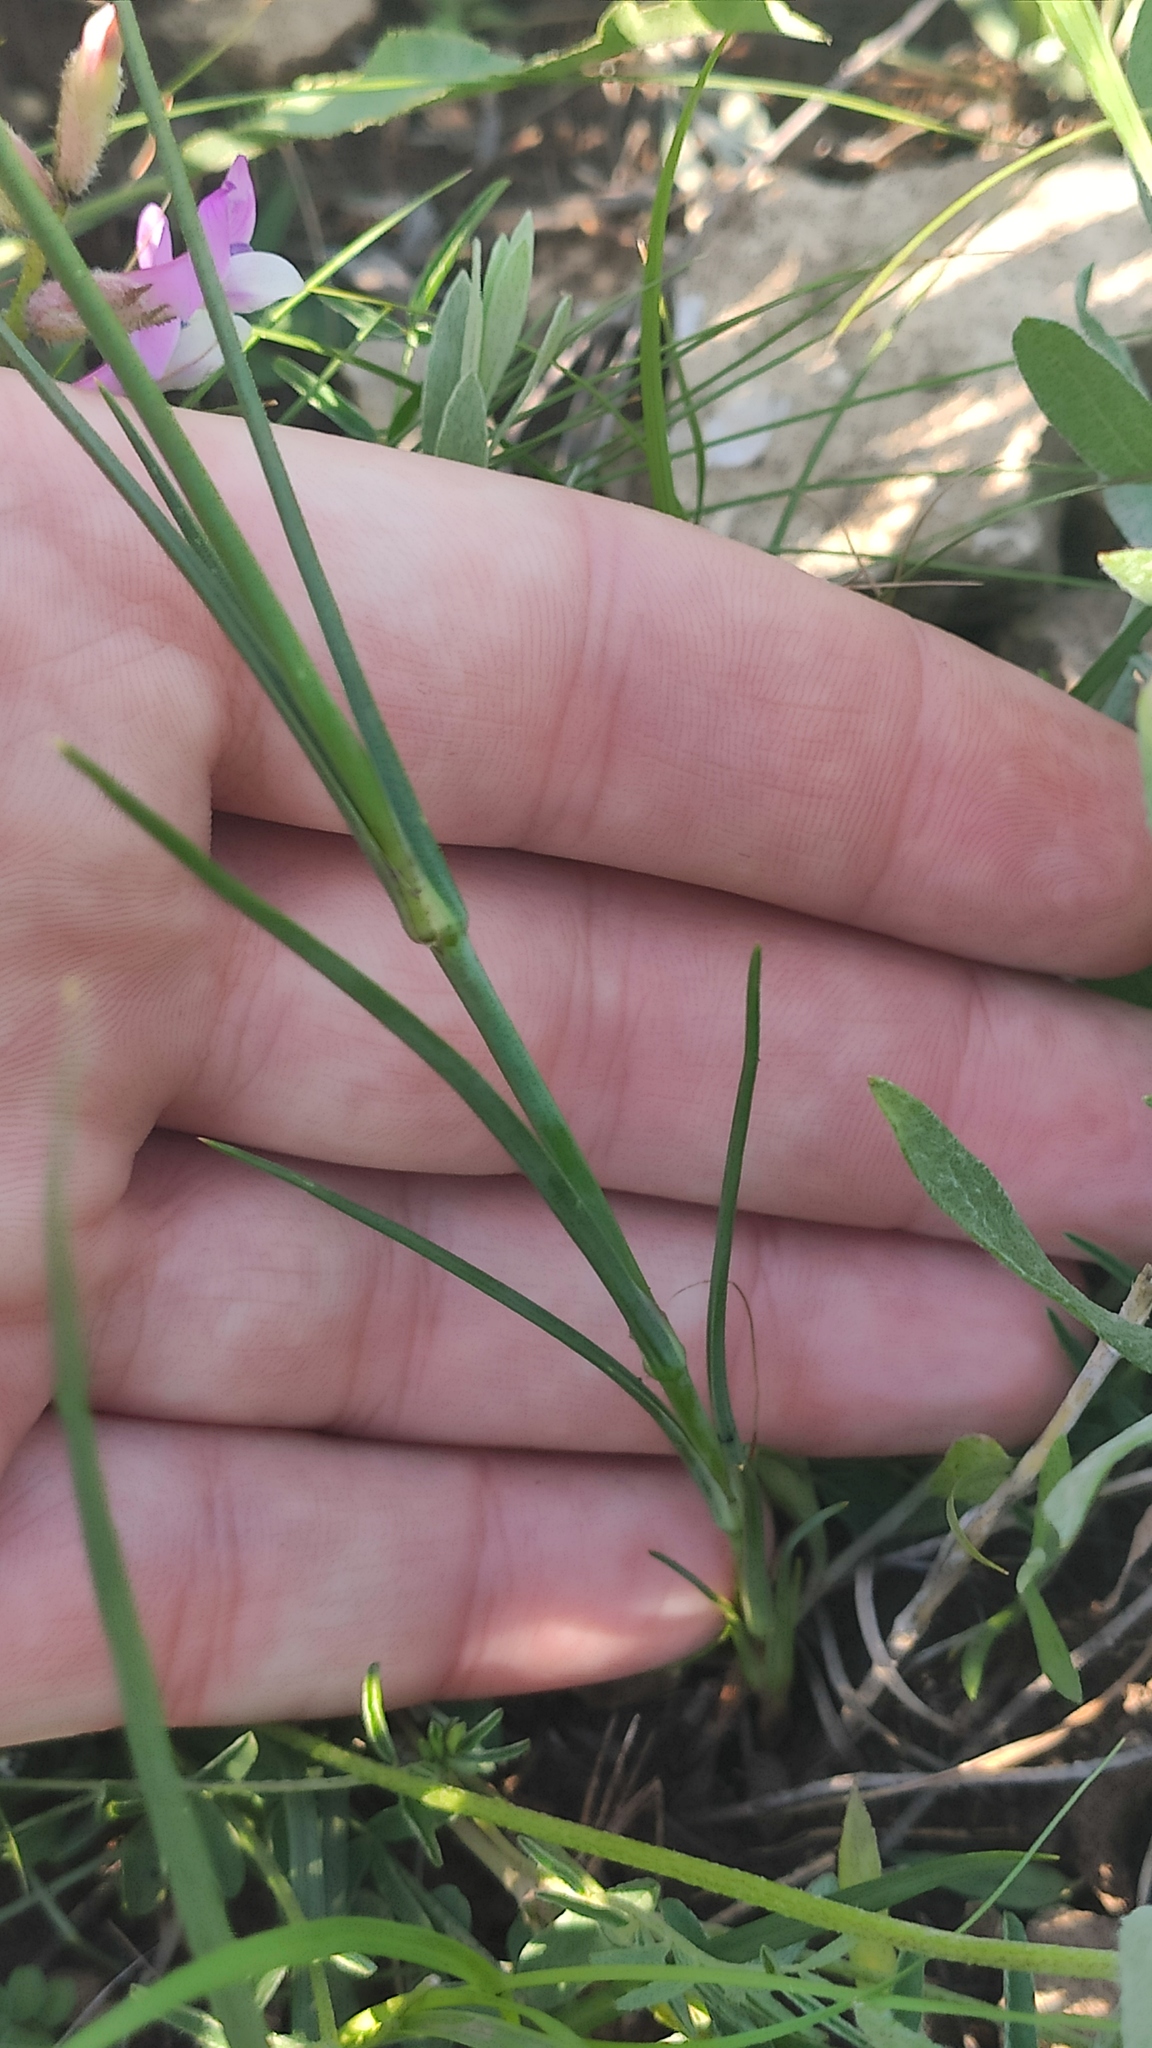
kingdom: Plantae
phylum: Tracheophyta
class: Magnoliopsida
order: Caryophyllales
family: Caryophyllaceae
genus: Eremogone
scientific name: Eremogone saxatilis
